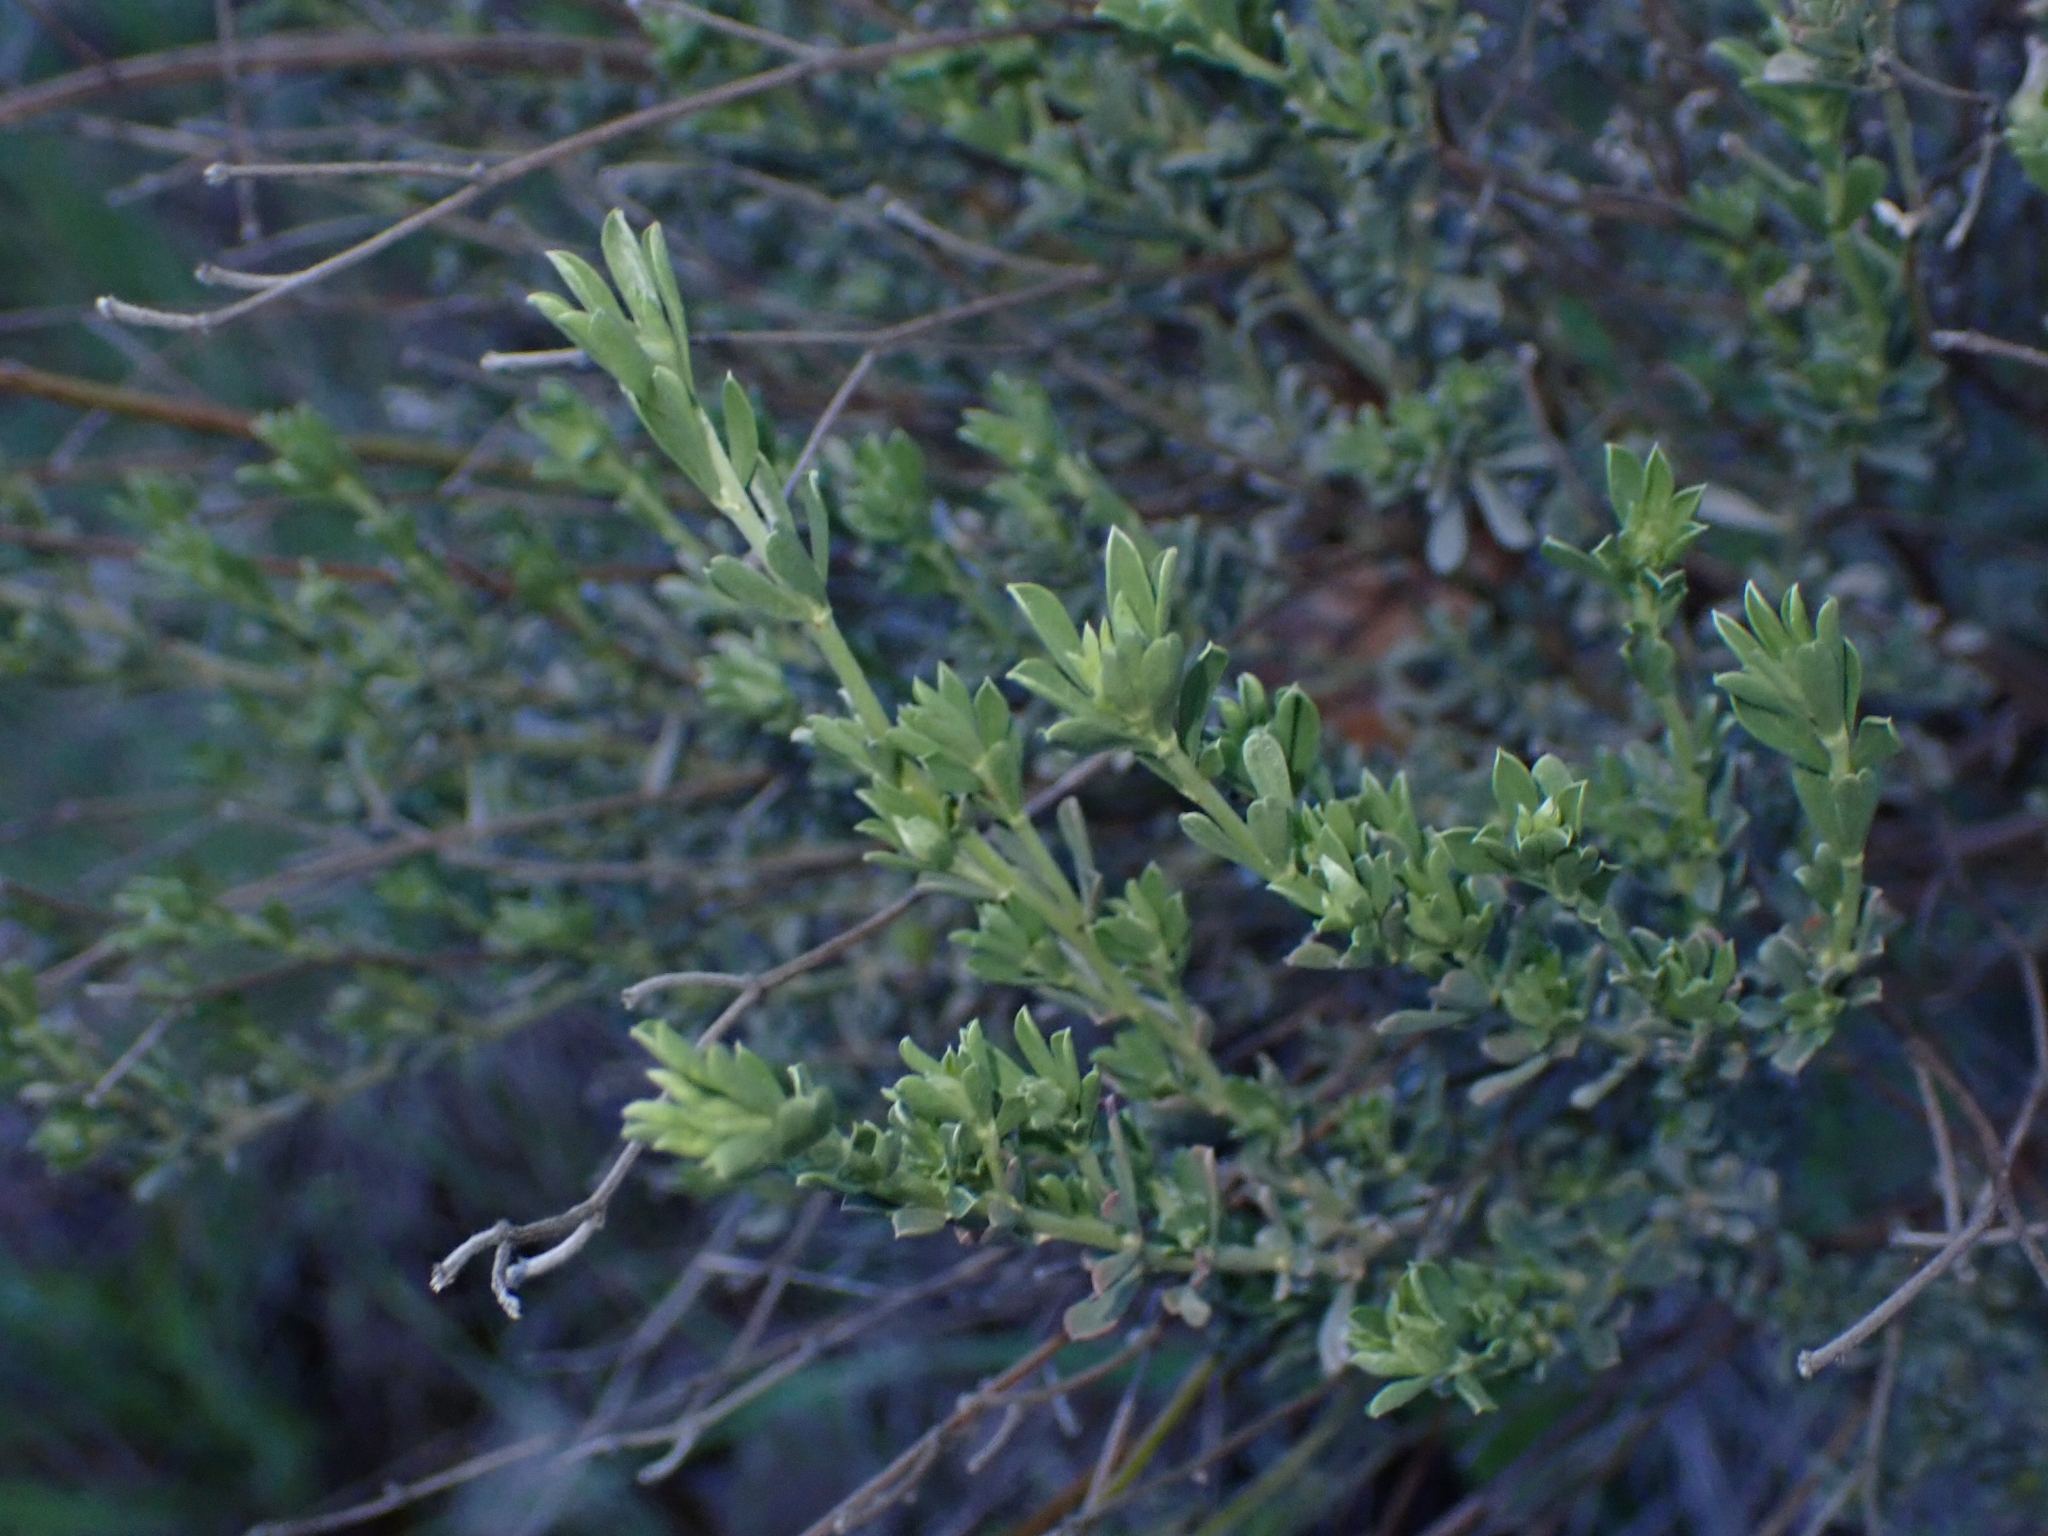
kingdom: Plantae
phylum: Tracheophyta
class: Magnoliopsida
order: Fabales
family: Fabaceae
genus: Lotus
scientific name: Lotus dorycnium
